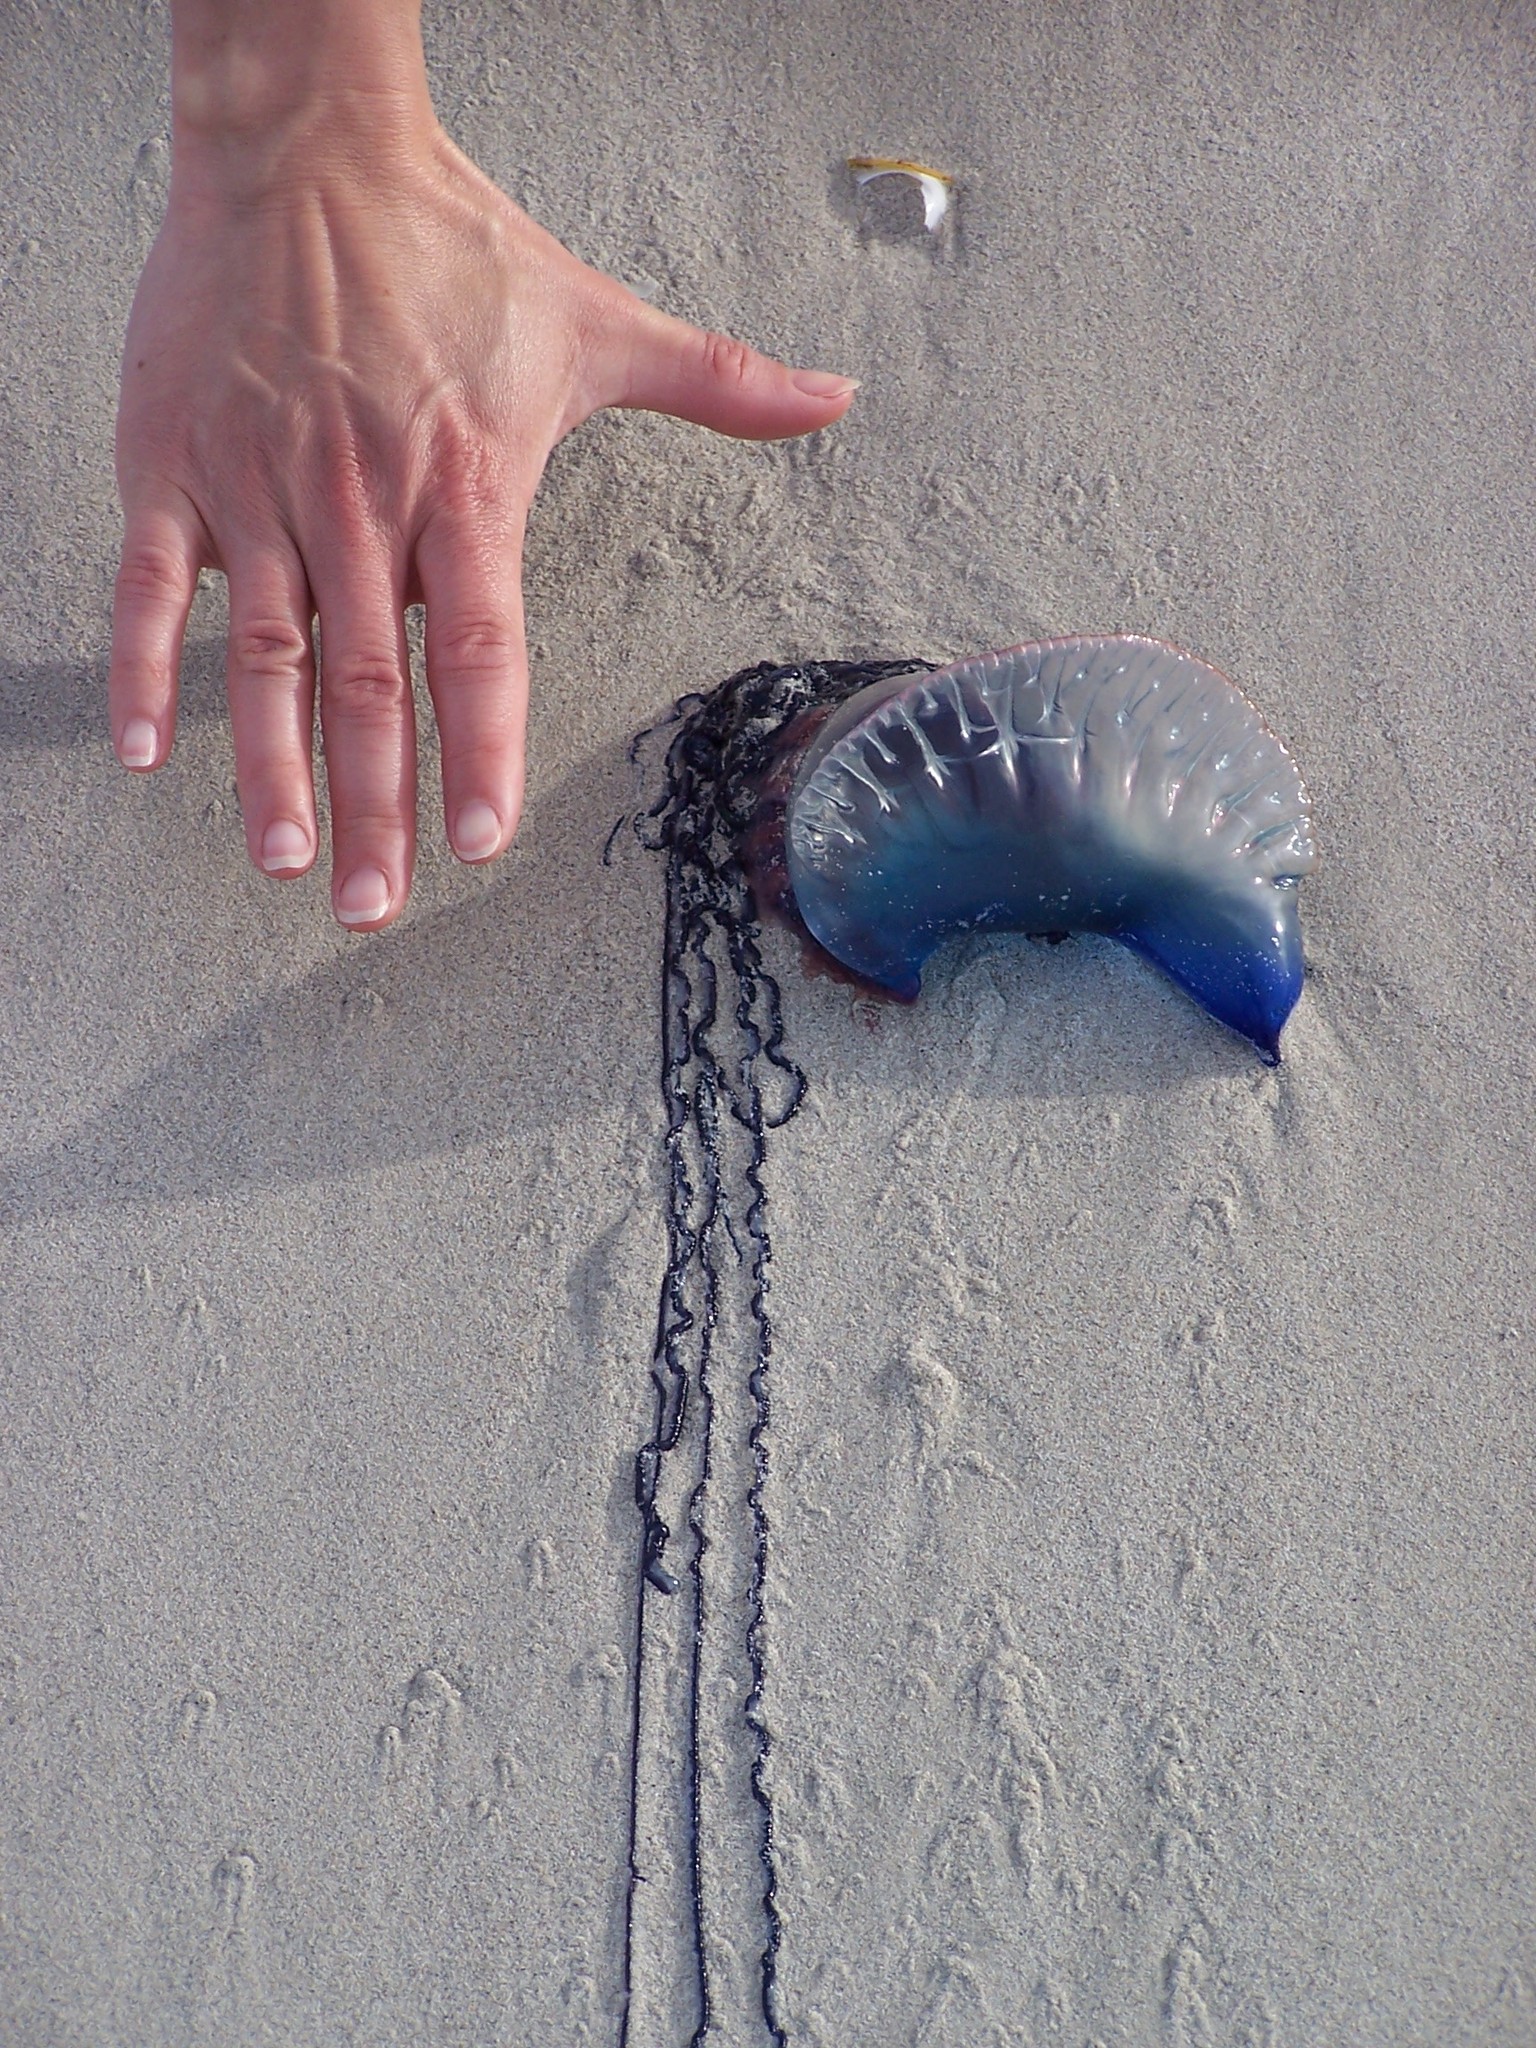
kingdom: Animalia
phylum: Cnidaria
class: Hydrozoa
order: Siphonophorae
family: Physaliidae
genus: Physalia
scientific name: Physalia physalis
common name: Portuguese man-of-war
